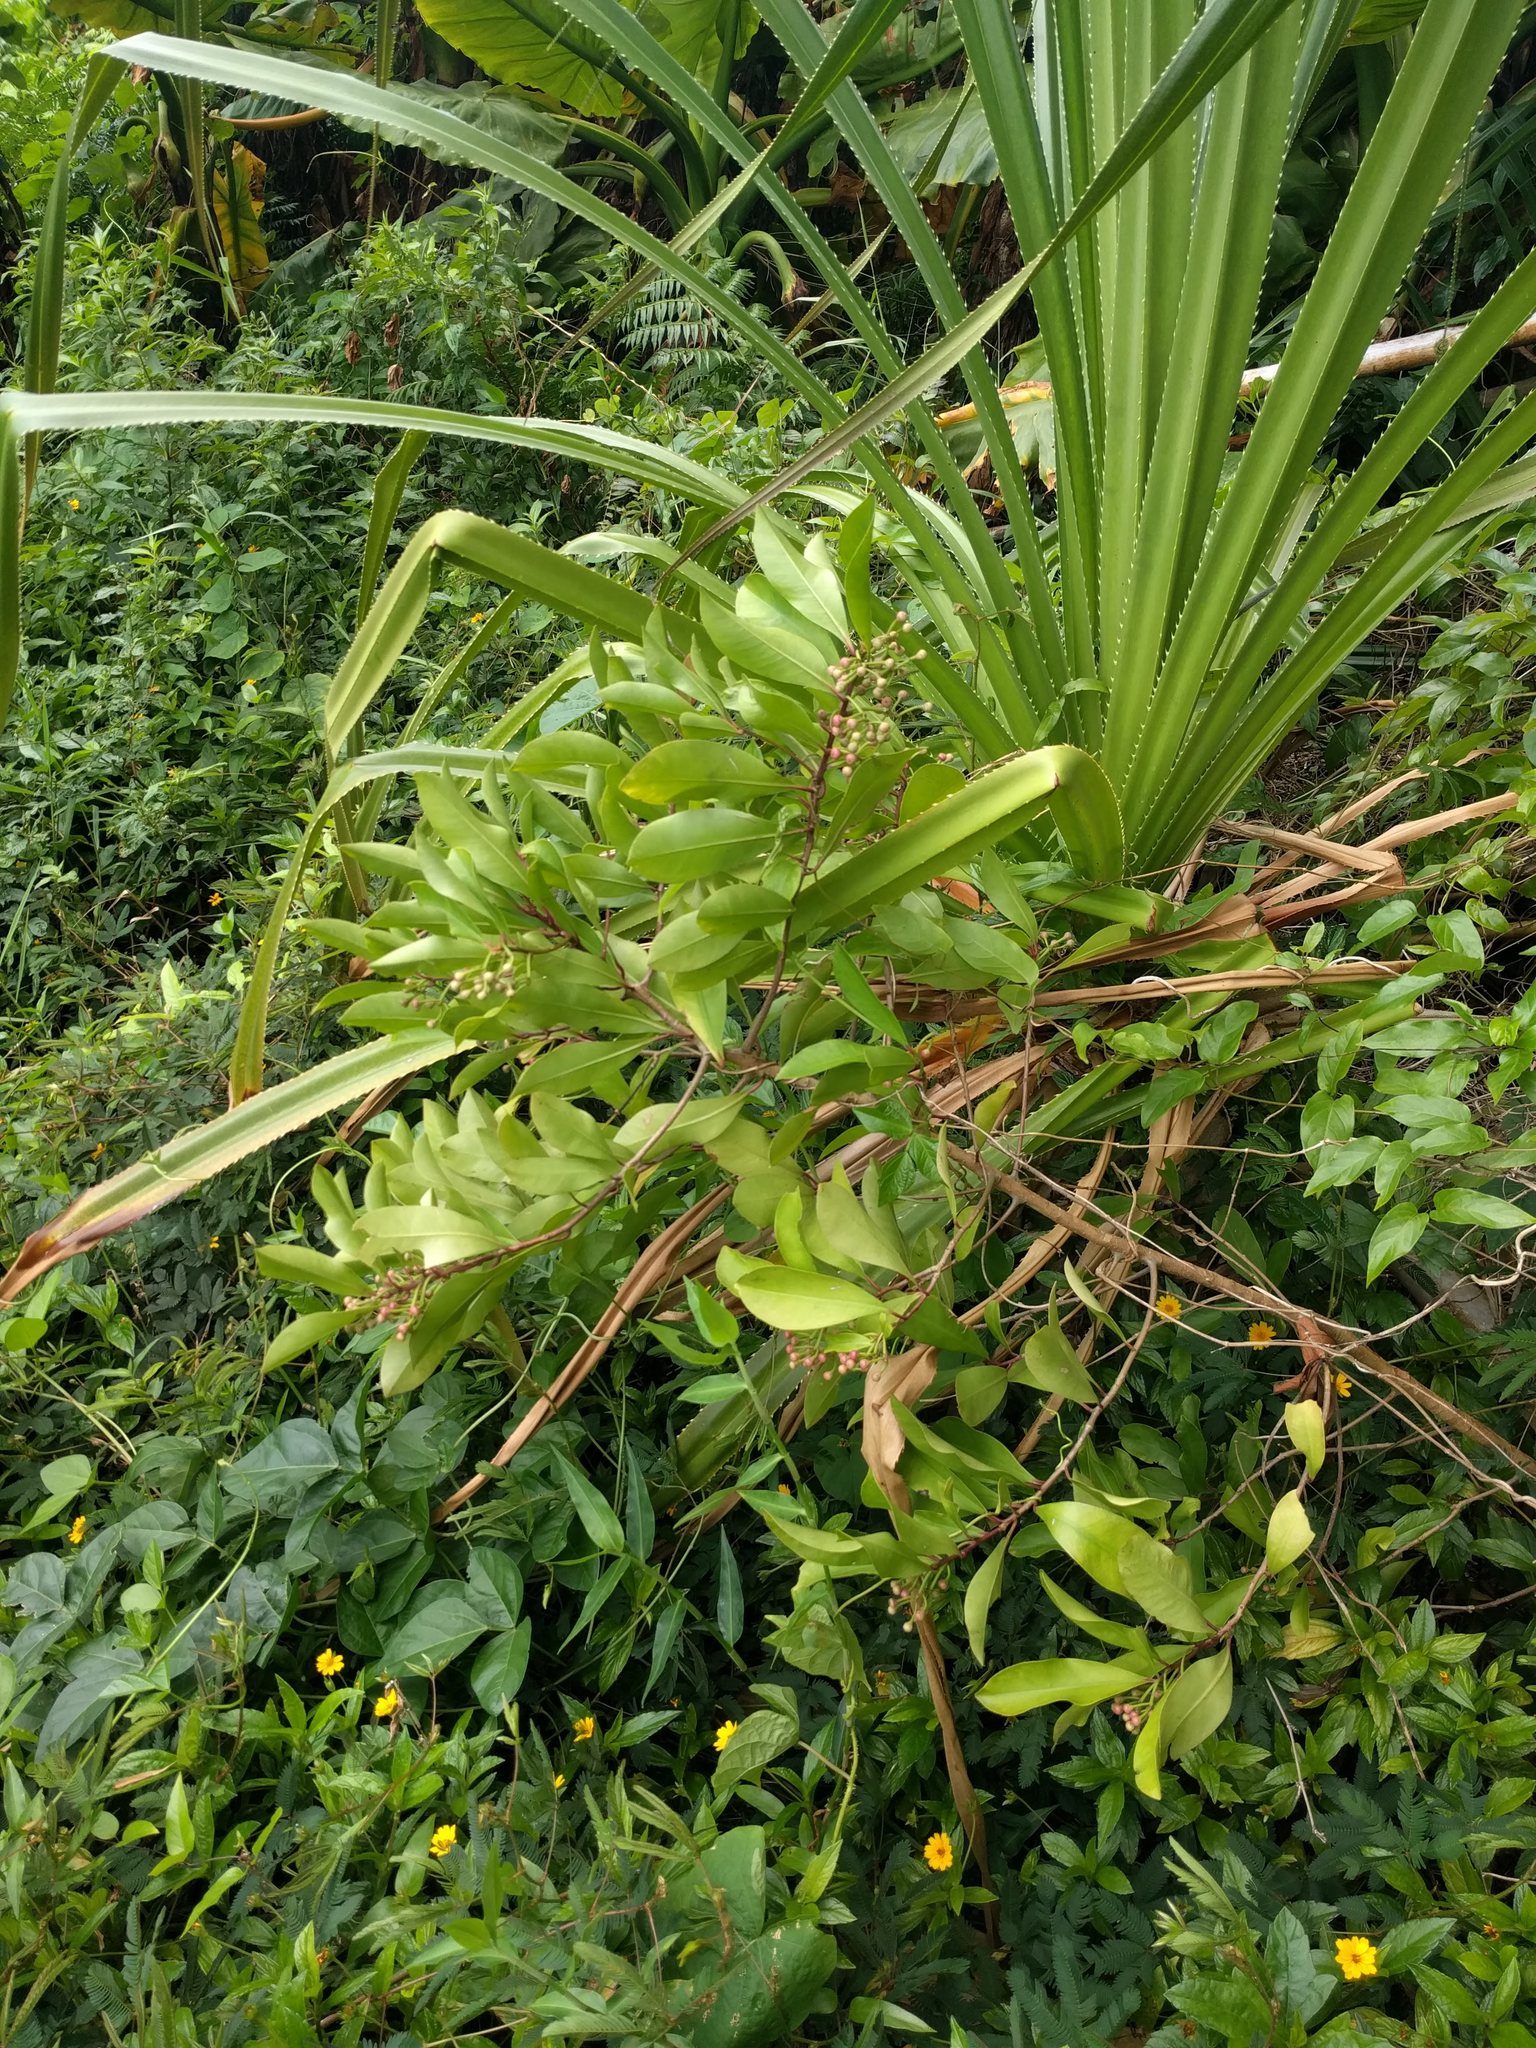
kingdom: Plantae
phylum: Tracheophyta
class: Magnoliopsida
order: Ericales
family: Primulaceae
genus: Ardisia
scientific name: Ardisia elliptica
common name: Shoebutton
